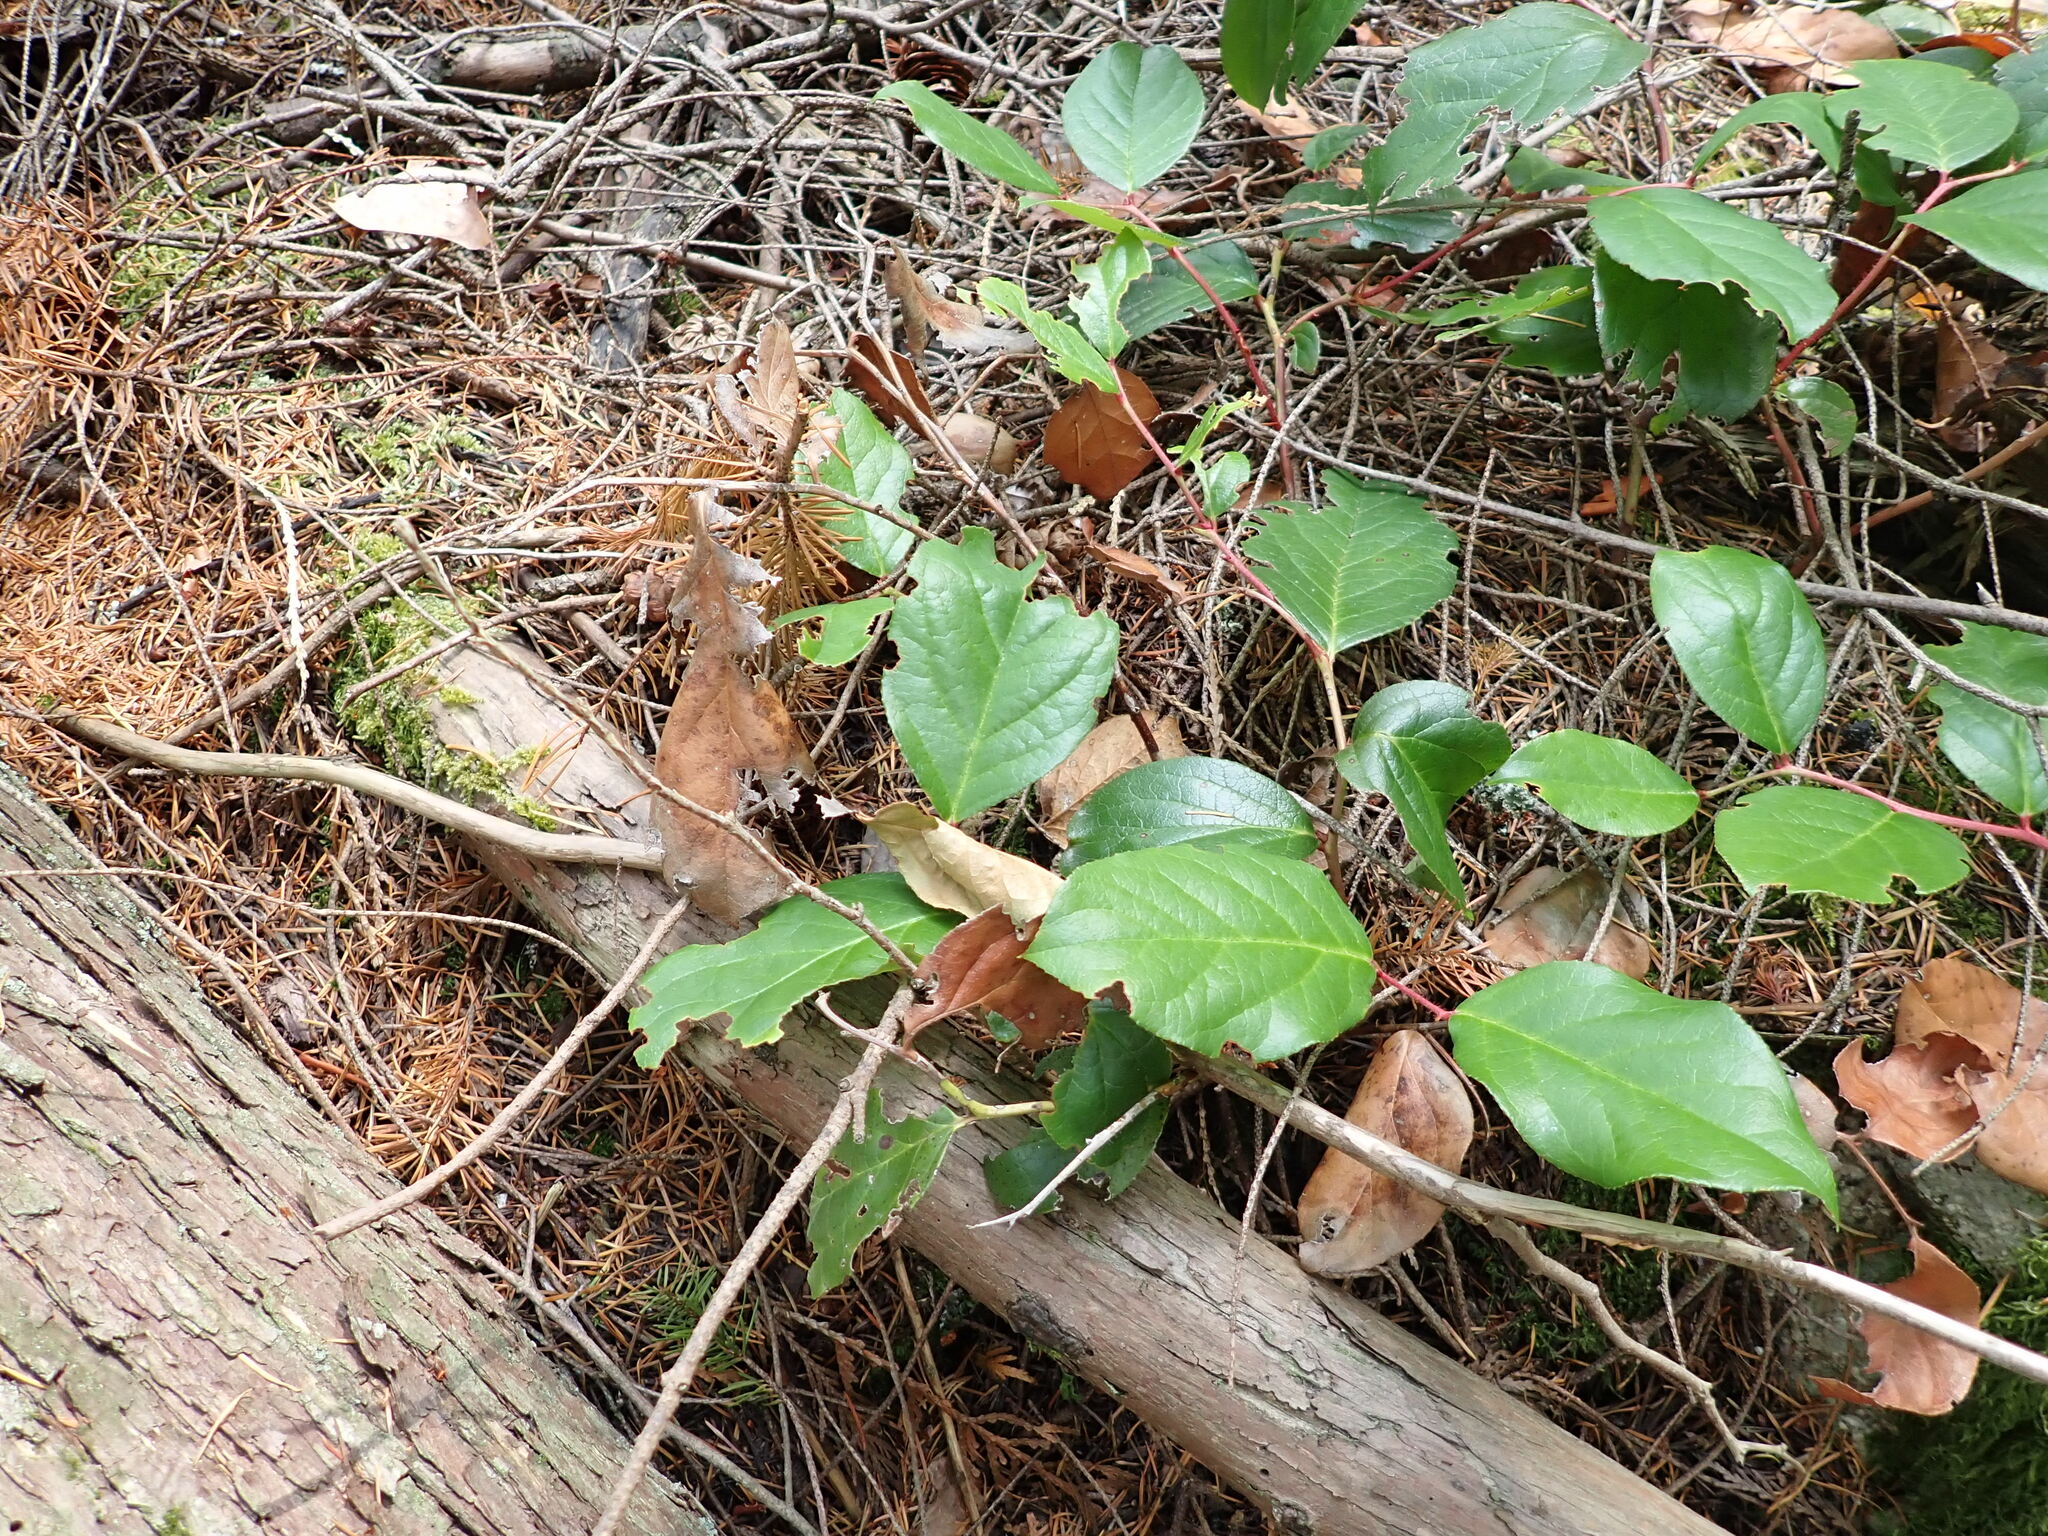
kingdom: Plantae
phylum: Tracheophyta
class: Magnoliopsida
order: Ericales
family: Ericaceae
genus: Gaultheria
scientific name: Gaultheria shallon
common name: Shallon
